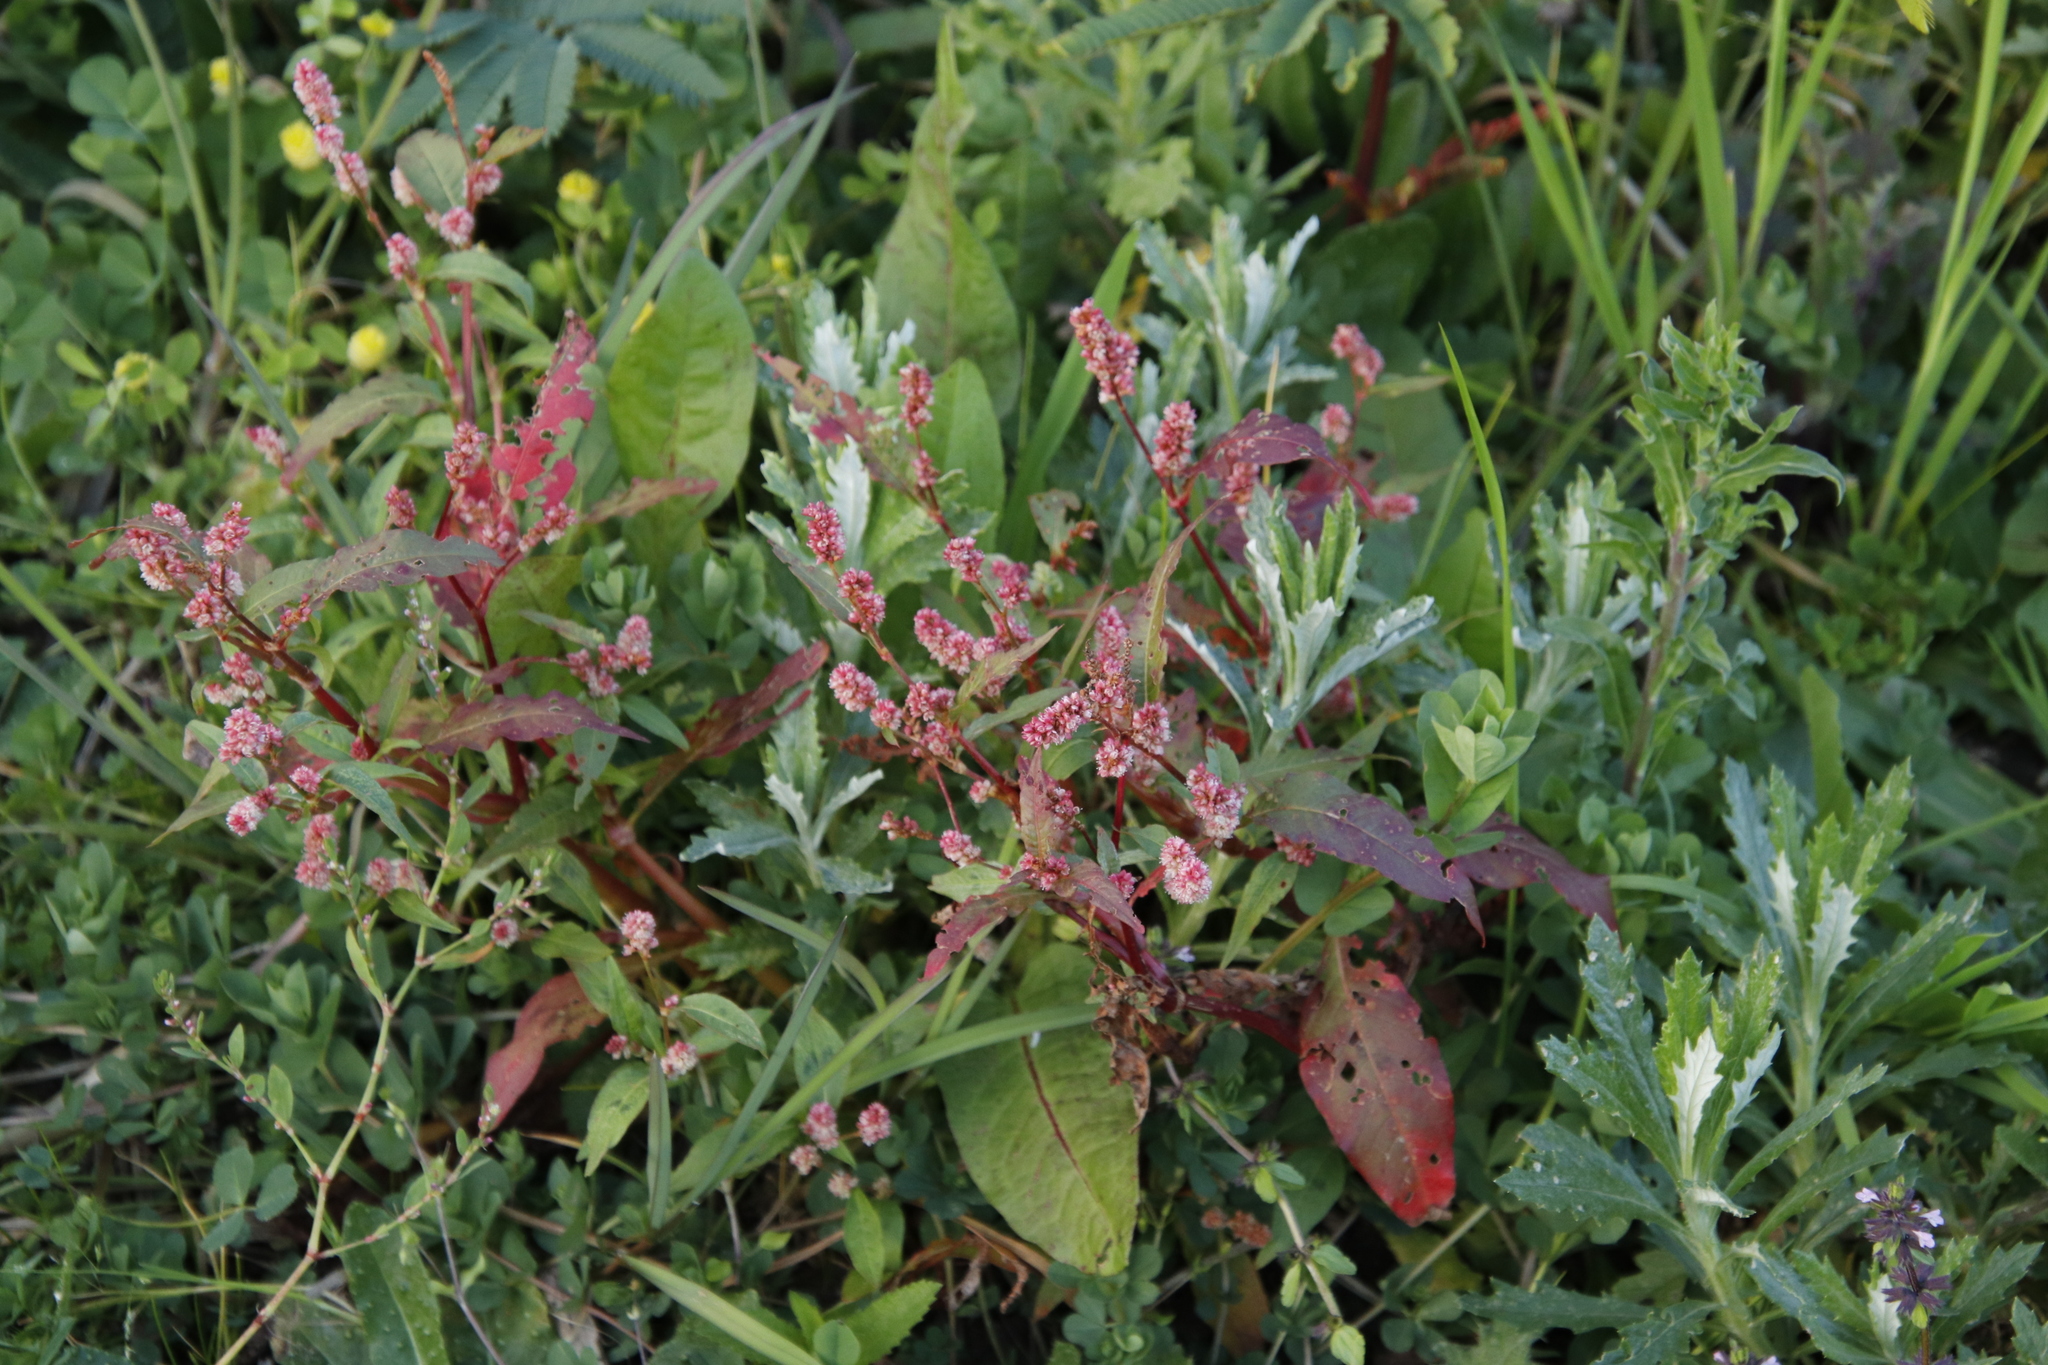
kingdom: Plantae
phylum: Tracheophyta
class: Magnoliopsida
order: Caryophyllales
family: Polygonaceae
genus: Persicaria
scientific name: Persicaria madagascariensis
